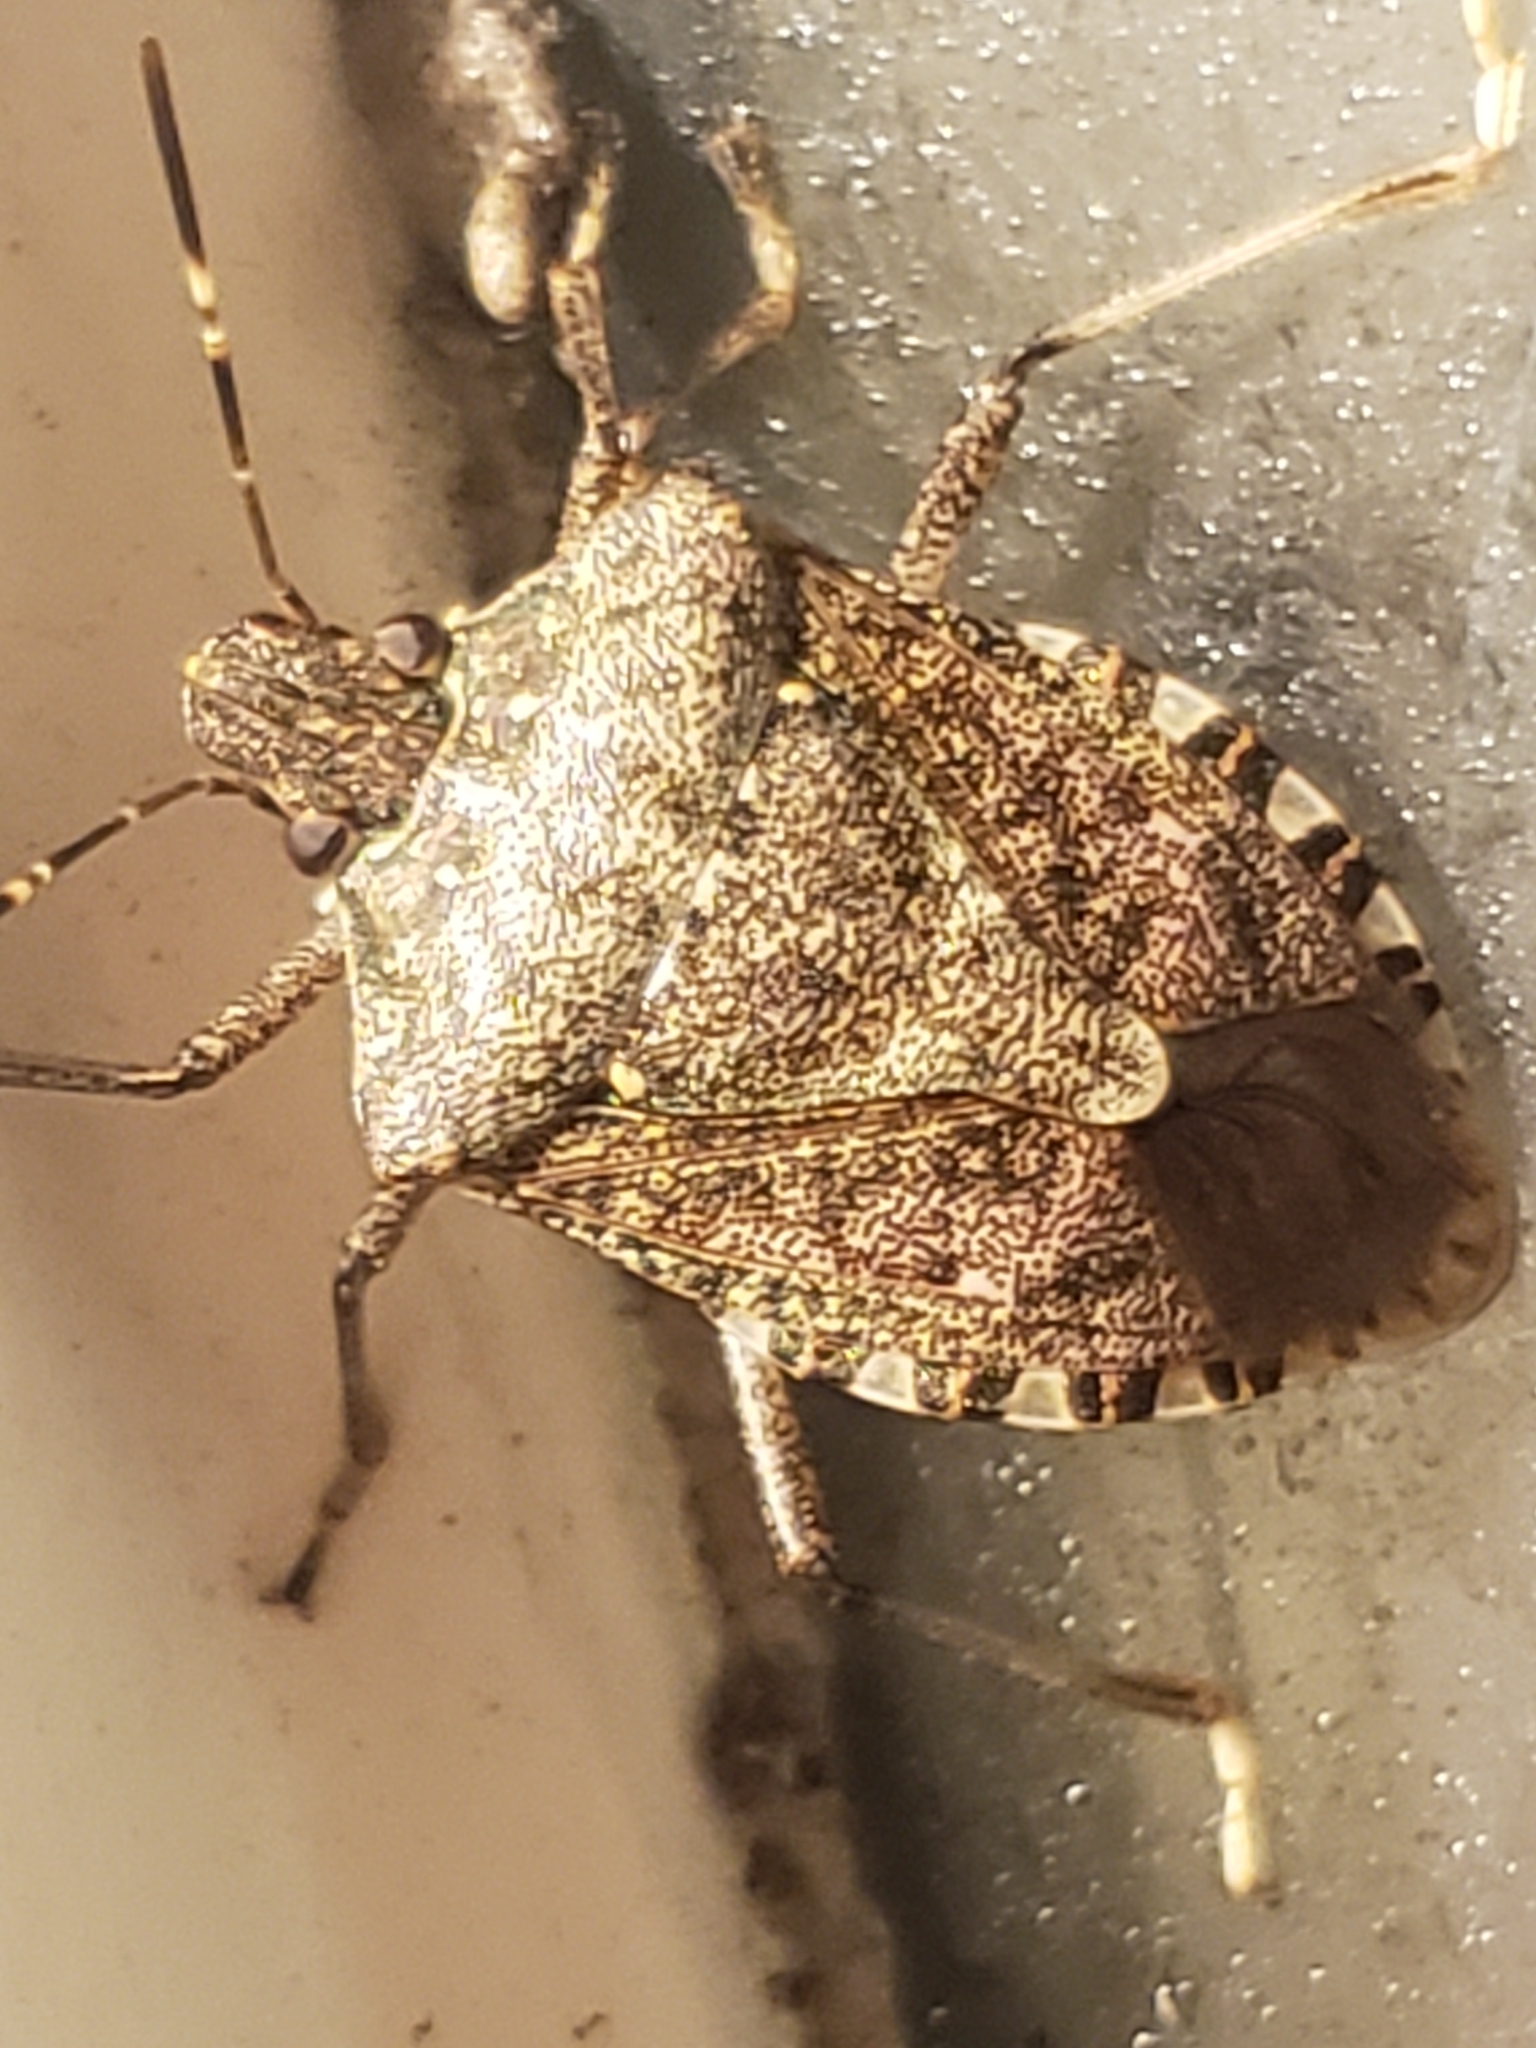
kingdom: Animalia
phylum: Arthropoda
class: Insecta
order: Hemiptera
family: Pentatomidae
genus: Halyomorpha
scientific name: Halyomorpha halys
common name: Brown marmorated stink bug
